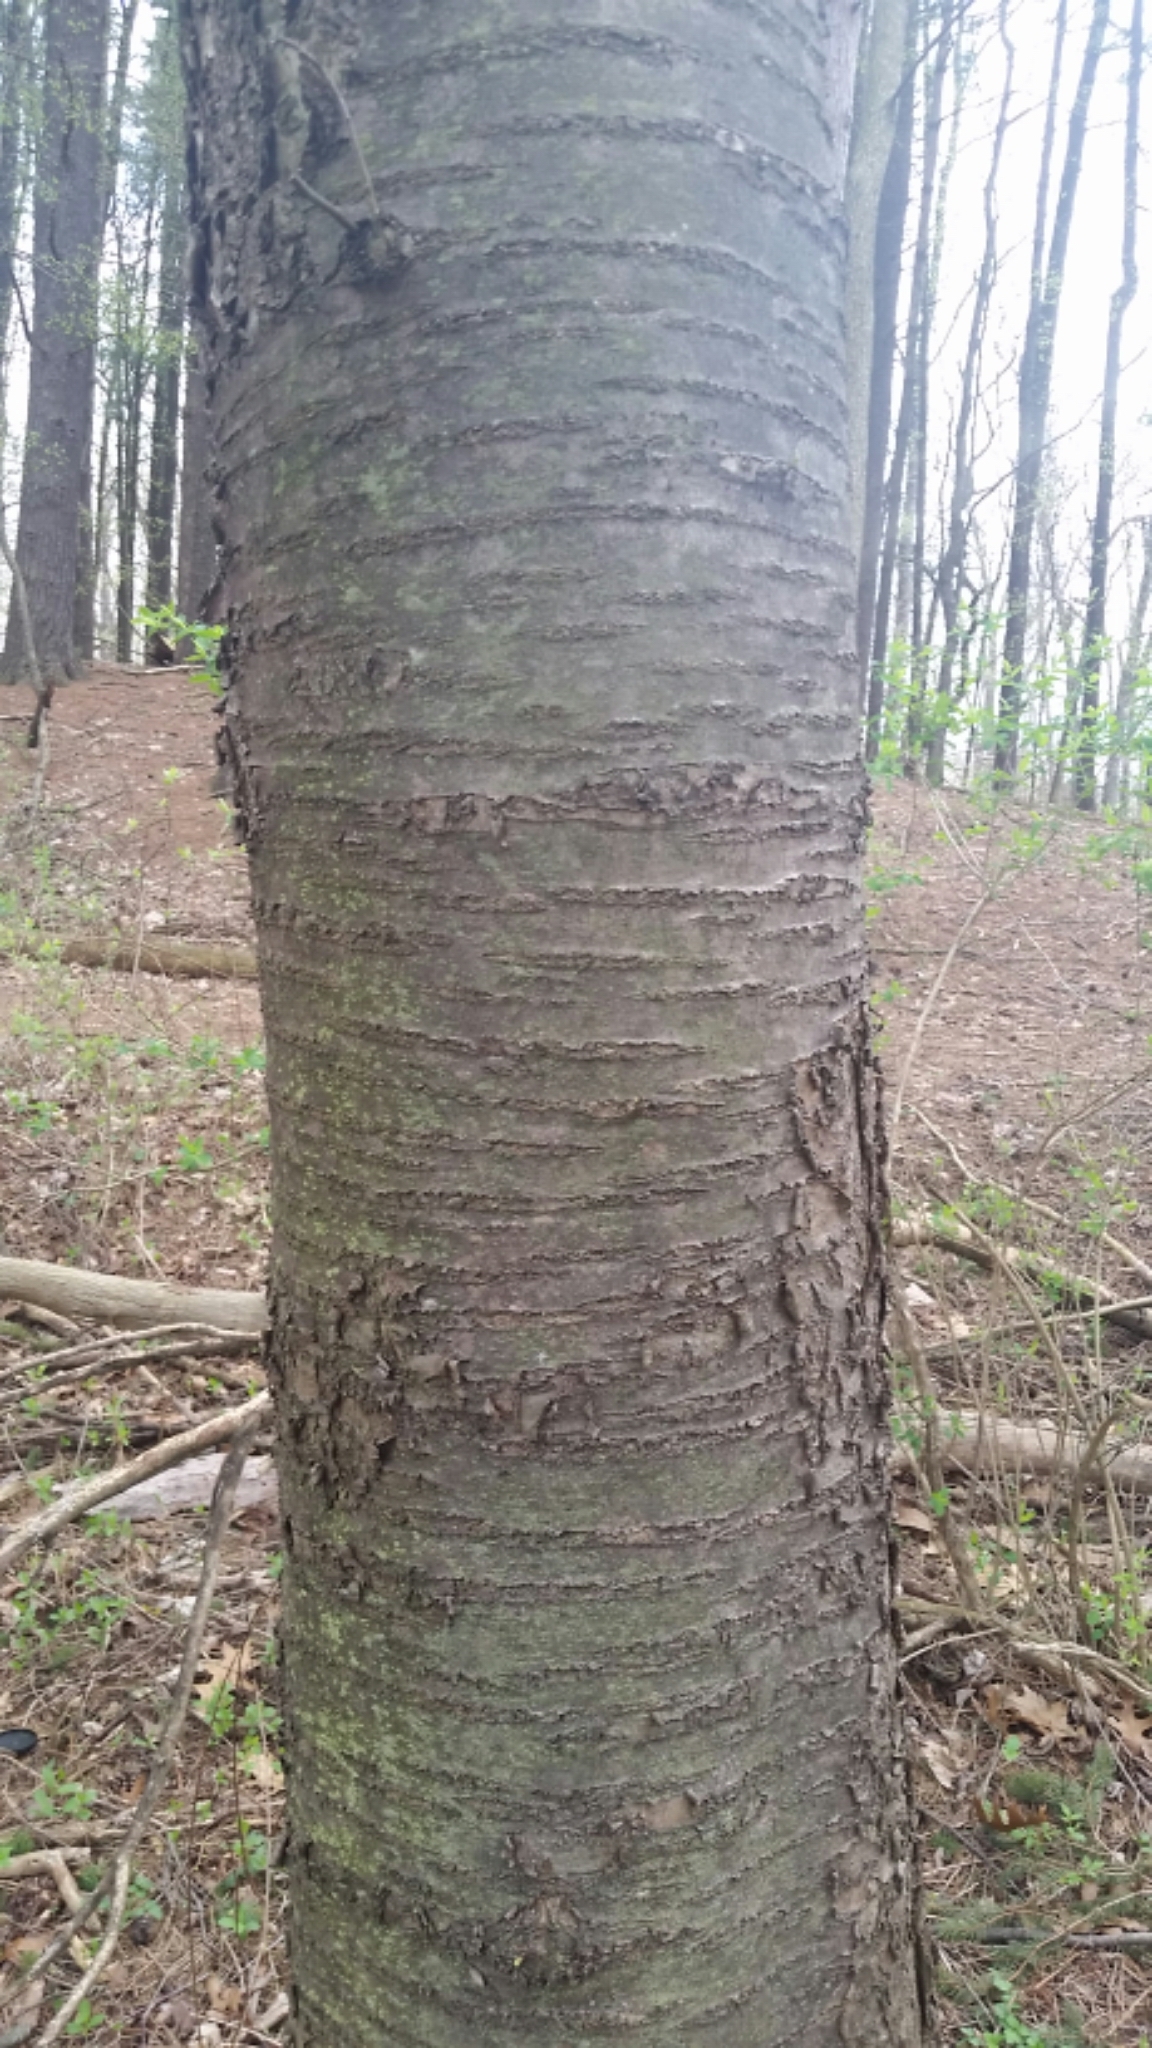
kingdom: Plantae
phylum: Tracheophyta
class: Magnoliopsida
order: Rosales
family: Rosaceae
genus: Prunus
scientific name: Prunus avium
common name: Sweet cherry
